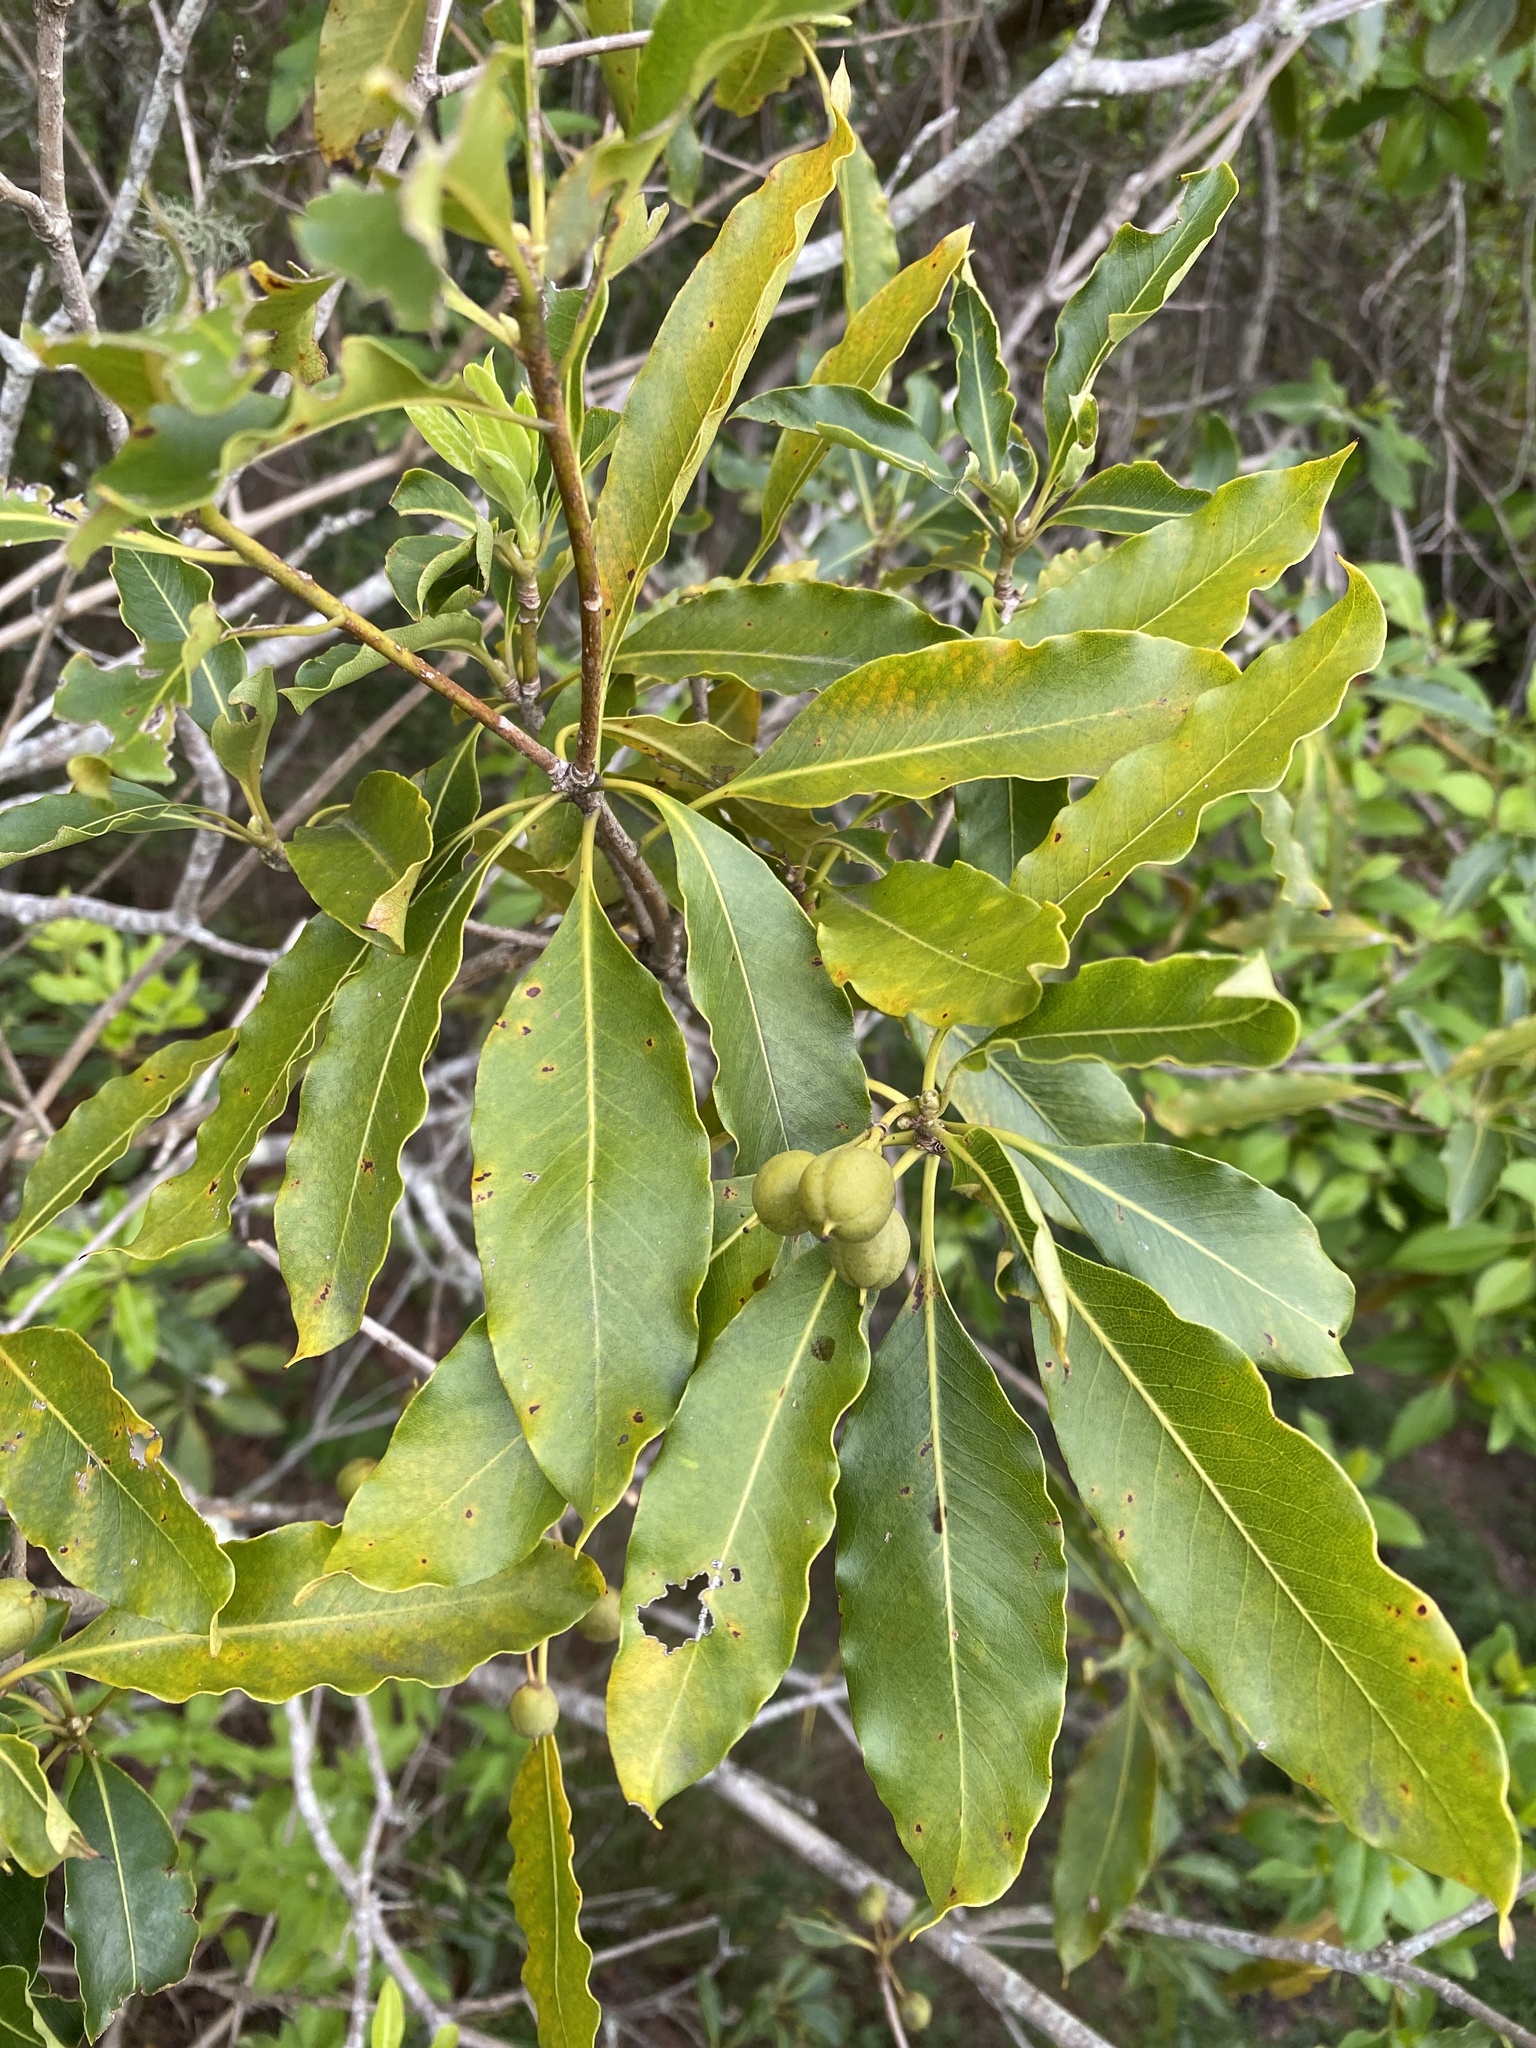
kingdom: Plantae
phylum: Tracheophyta
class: Magnoliopsida
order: Apiales
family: Pittosporaceae
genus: Pittosporum
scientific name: Pittosporum undulatum
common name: Australian cheesewood
